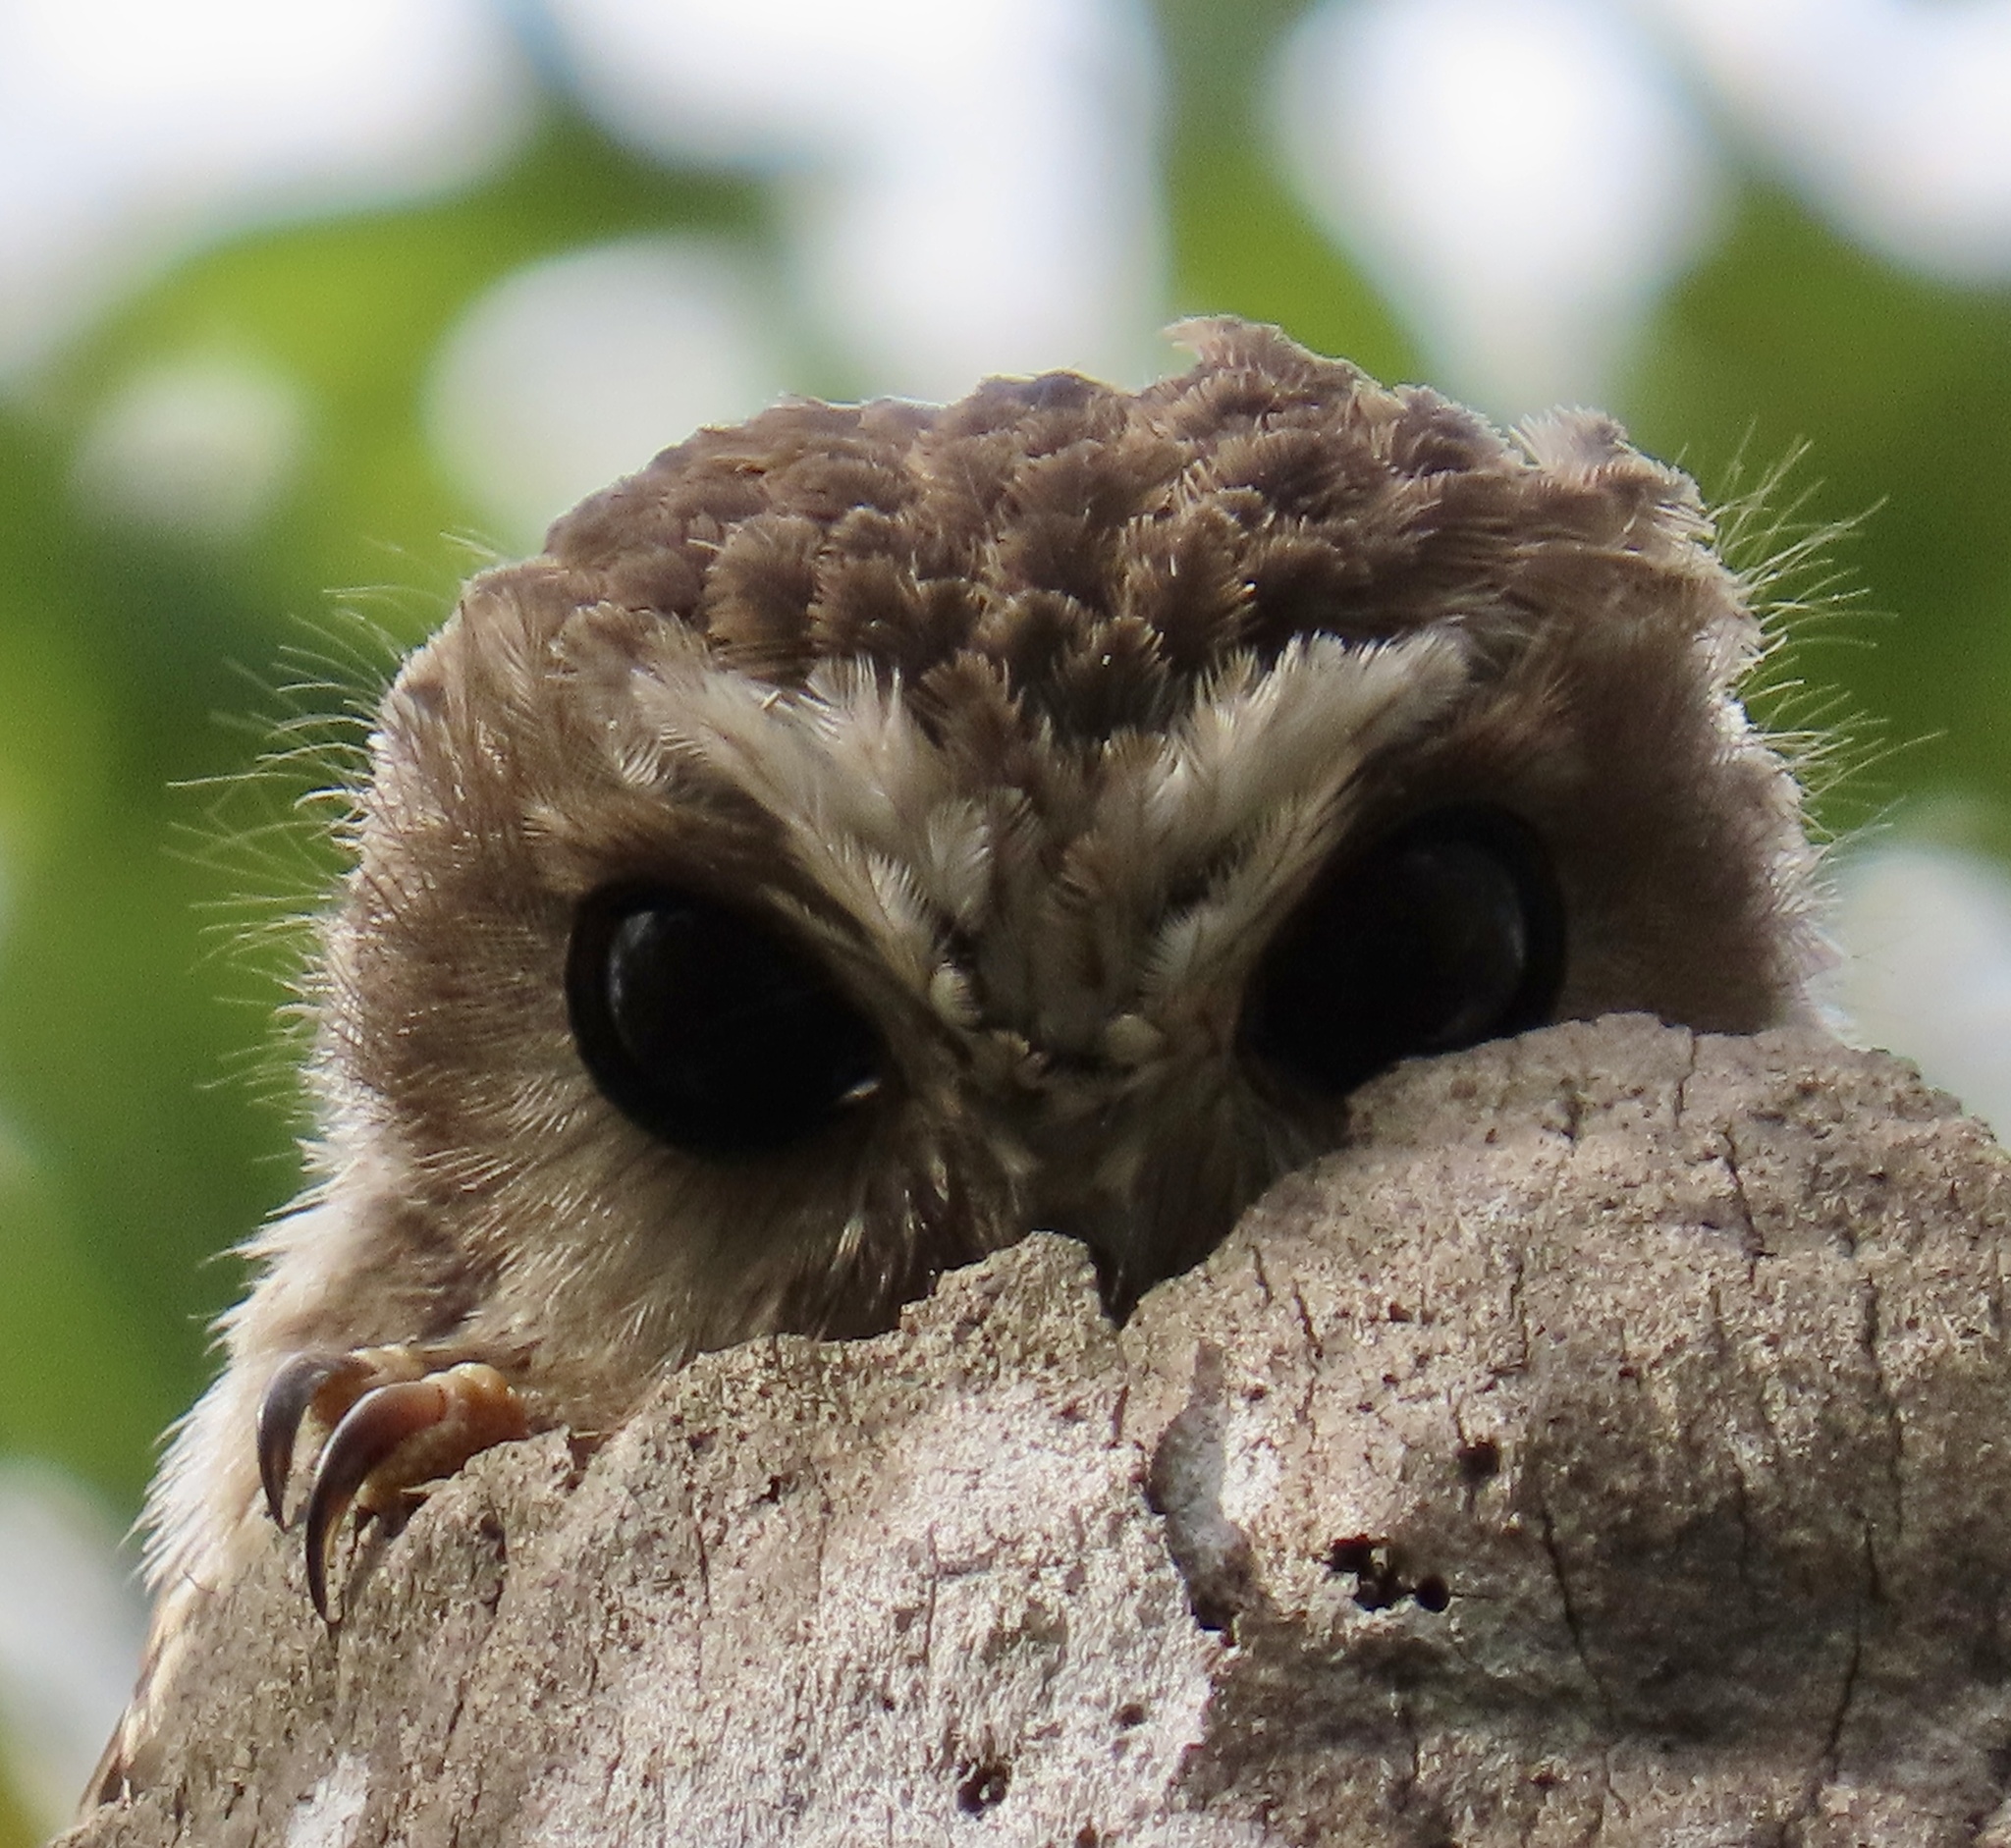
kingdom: Animalia
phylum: Chordata
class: Aves
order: Strigiformes
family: Strigidae
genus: Margarobyas
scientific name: Margarobyas lawrencii
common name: Bare-legged owl
